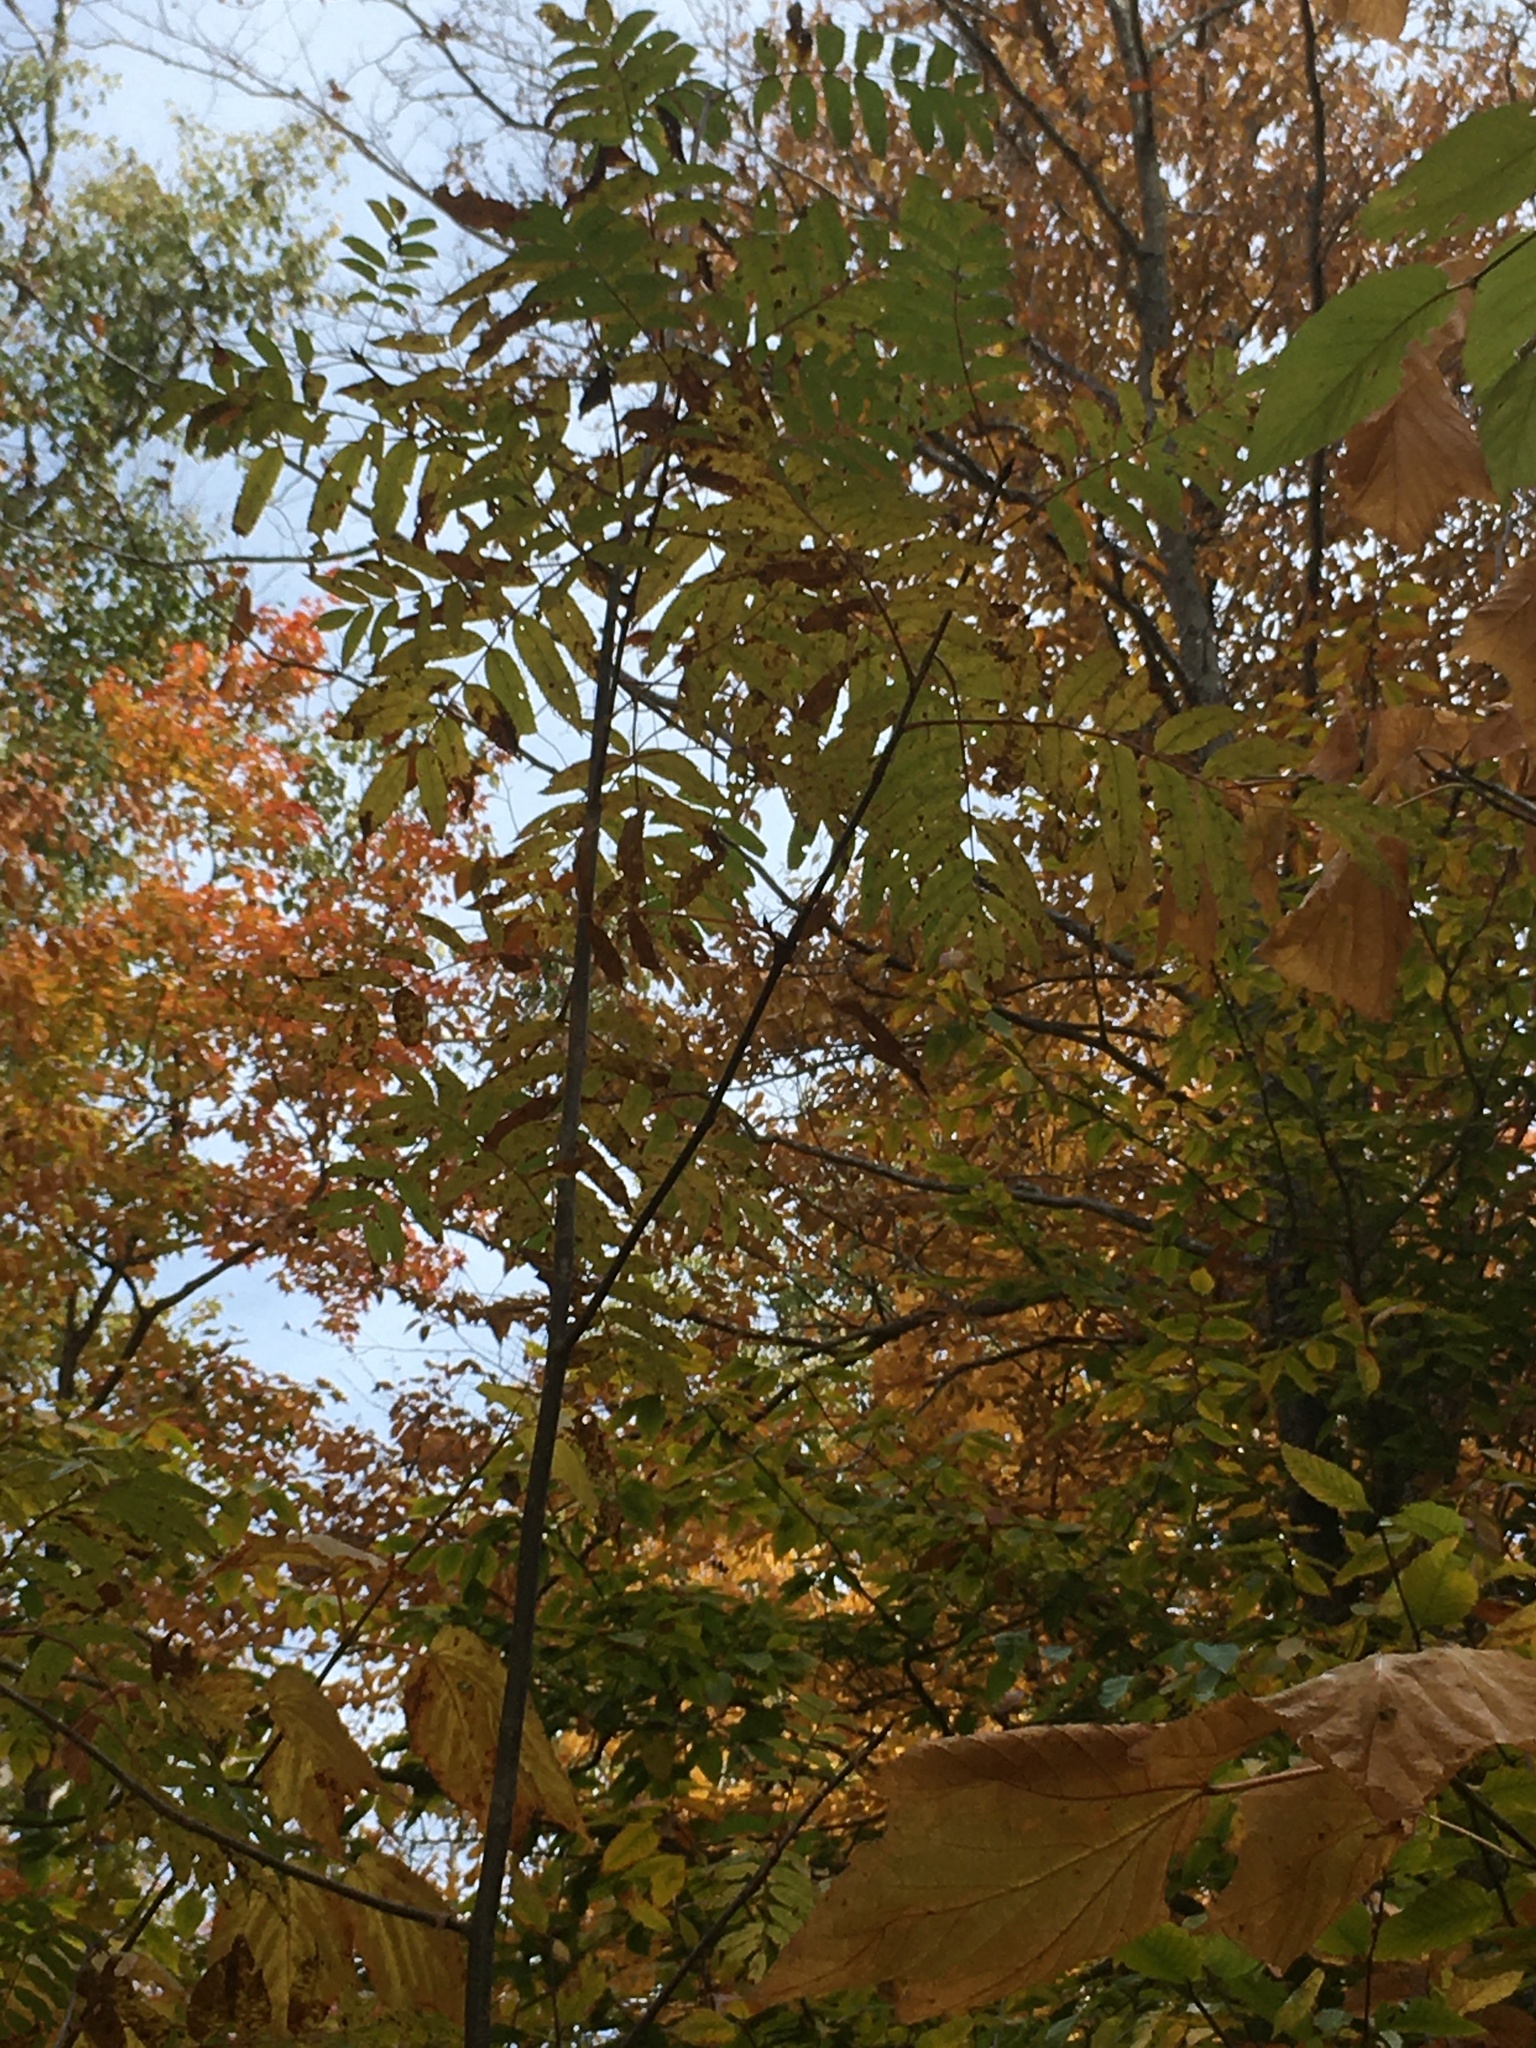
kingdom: Plantae
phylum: Tracheophyta
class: Magnoliopsida
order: Rosales
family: Rosaceae
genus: Sorbus
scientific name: Sorbus americana
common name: American mountain-ash
